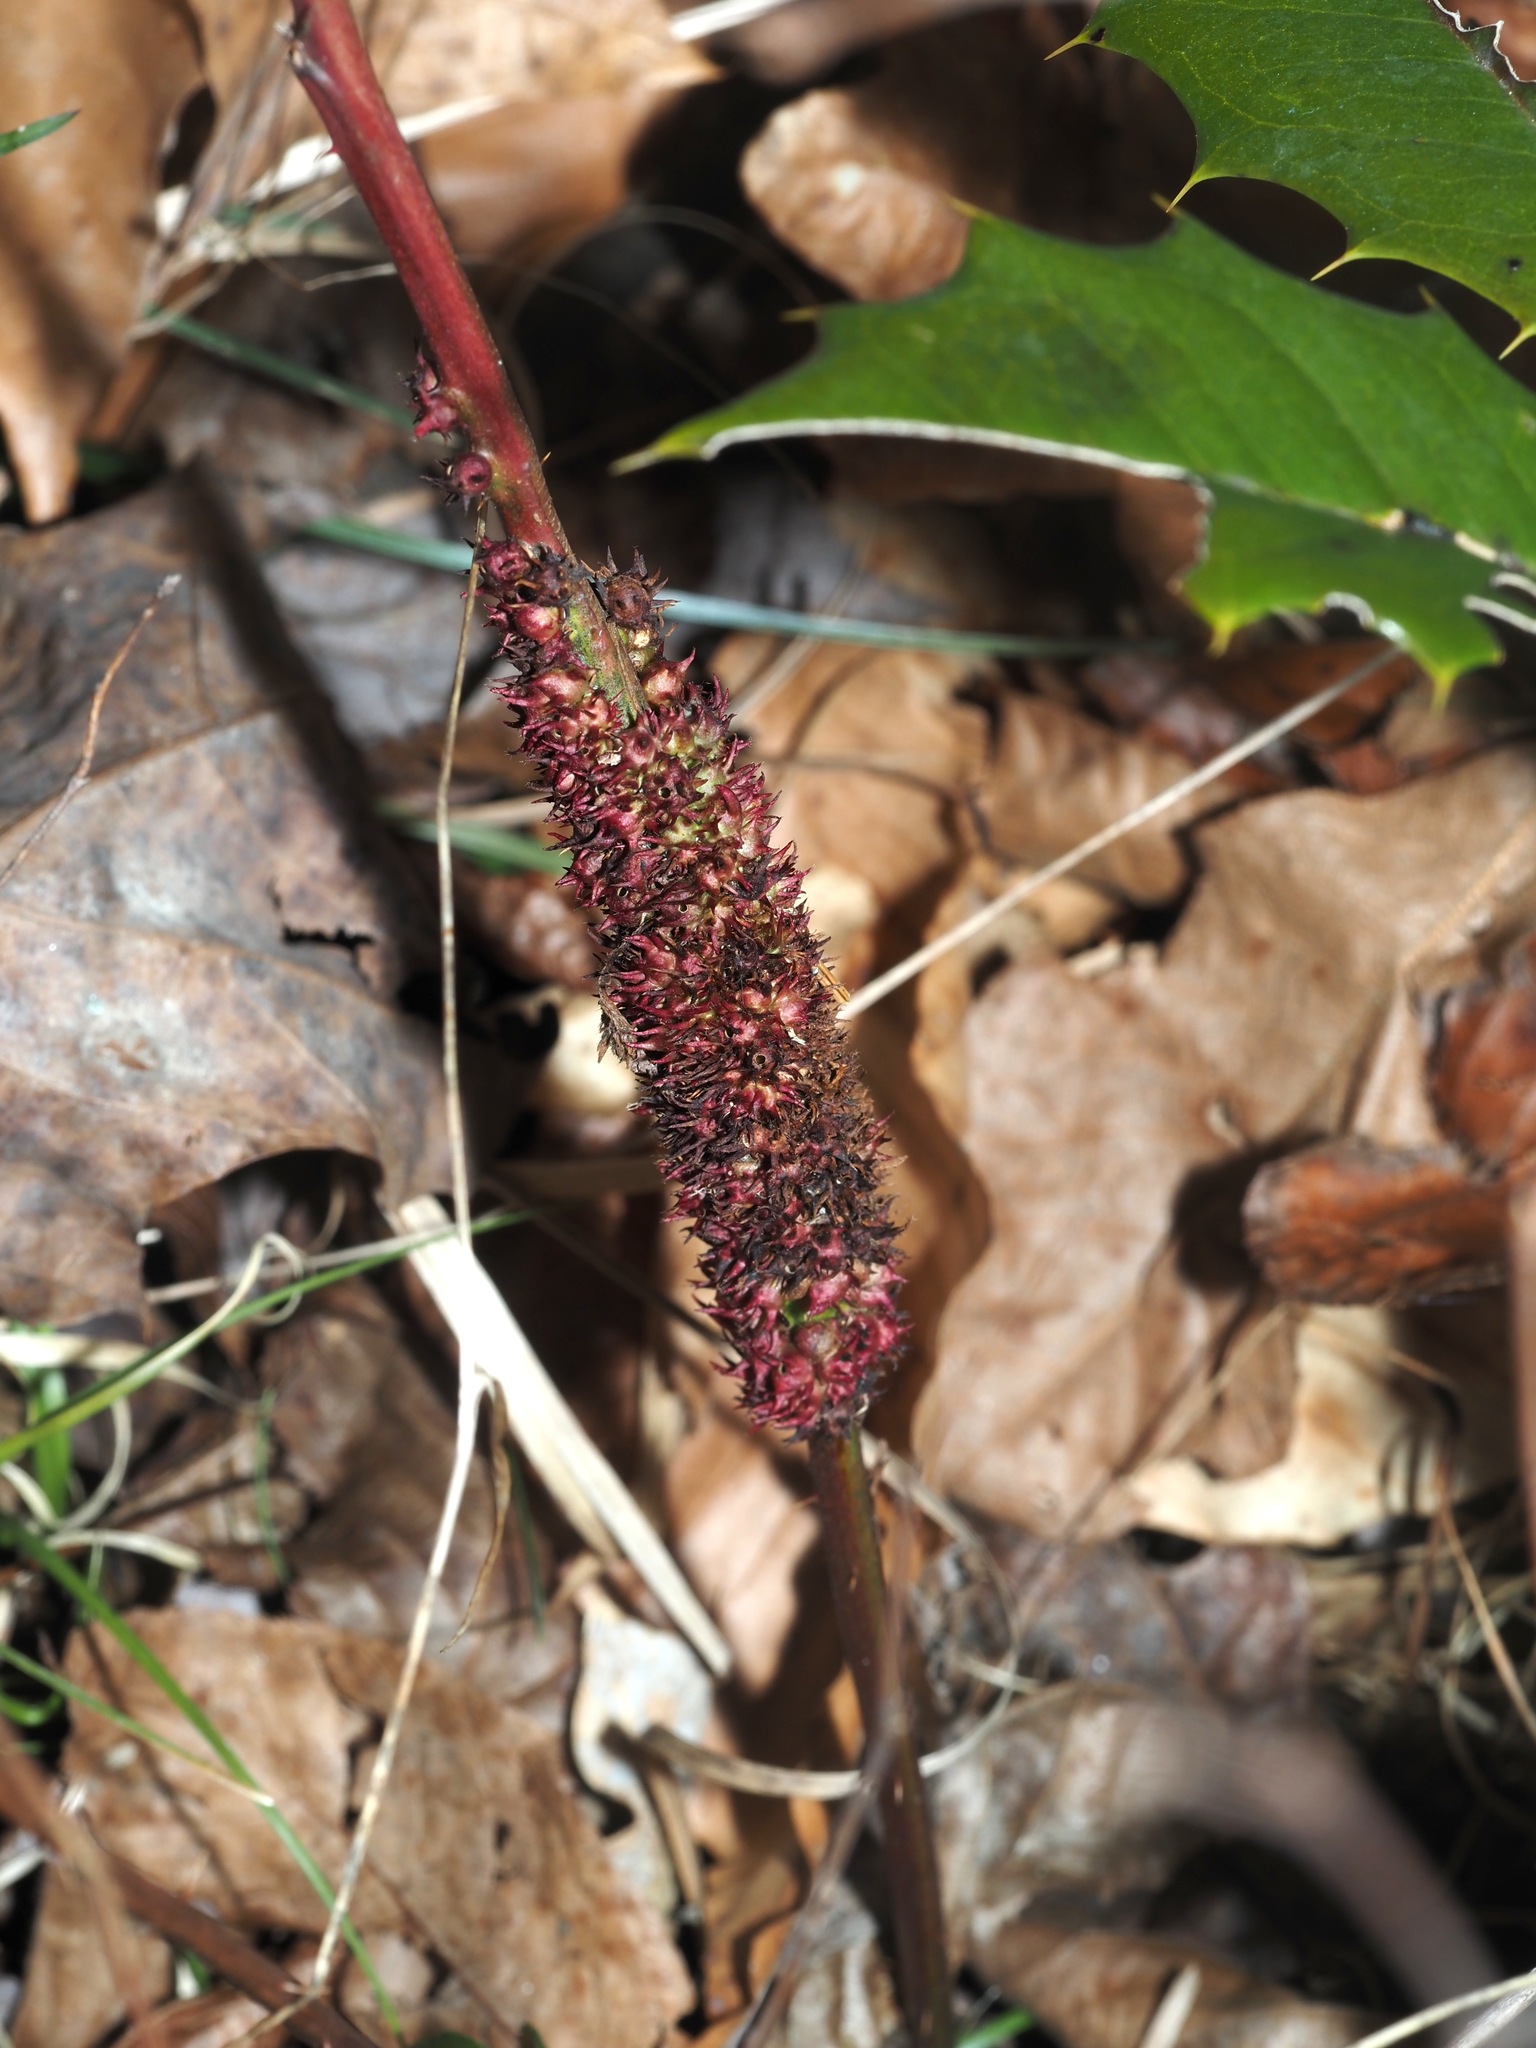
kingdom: Animalia
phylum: Arthropoda
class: Insecta
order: Hymenoptera
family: Cynipidae
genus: Diastrophus
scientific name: Diastrophus
